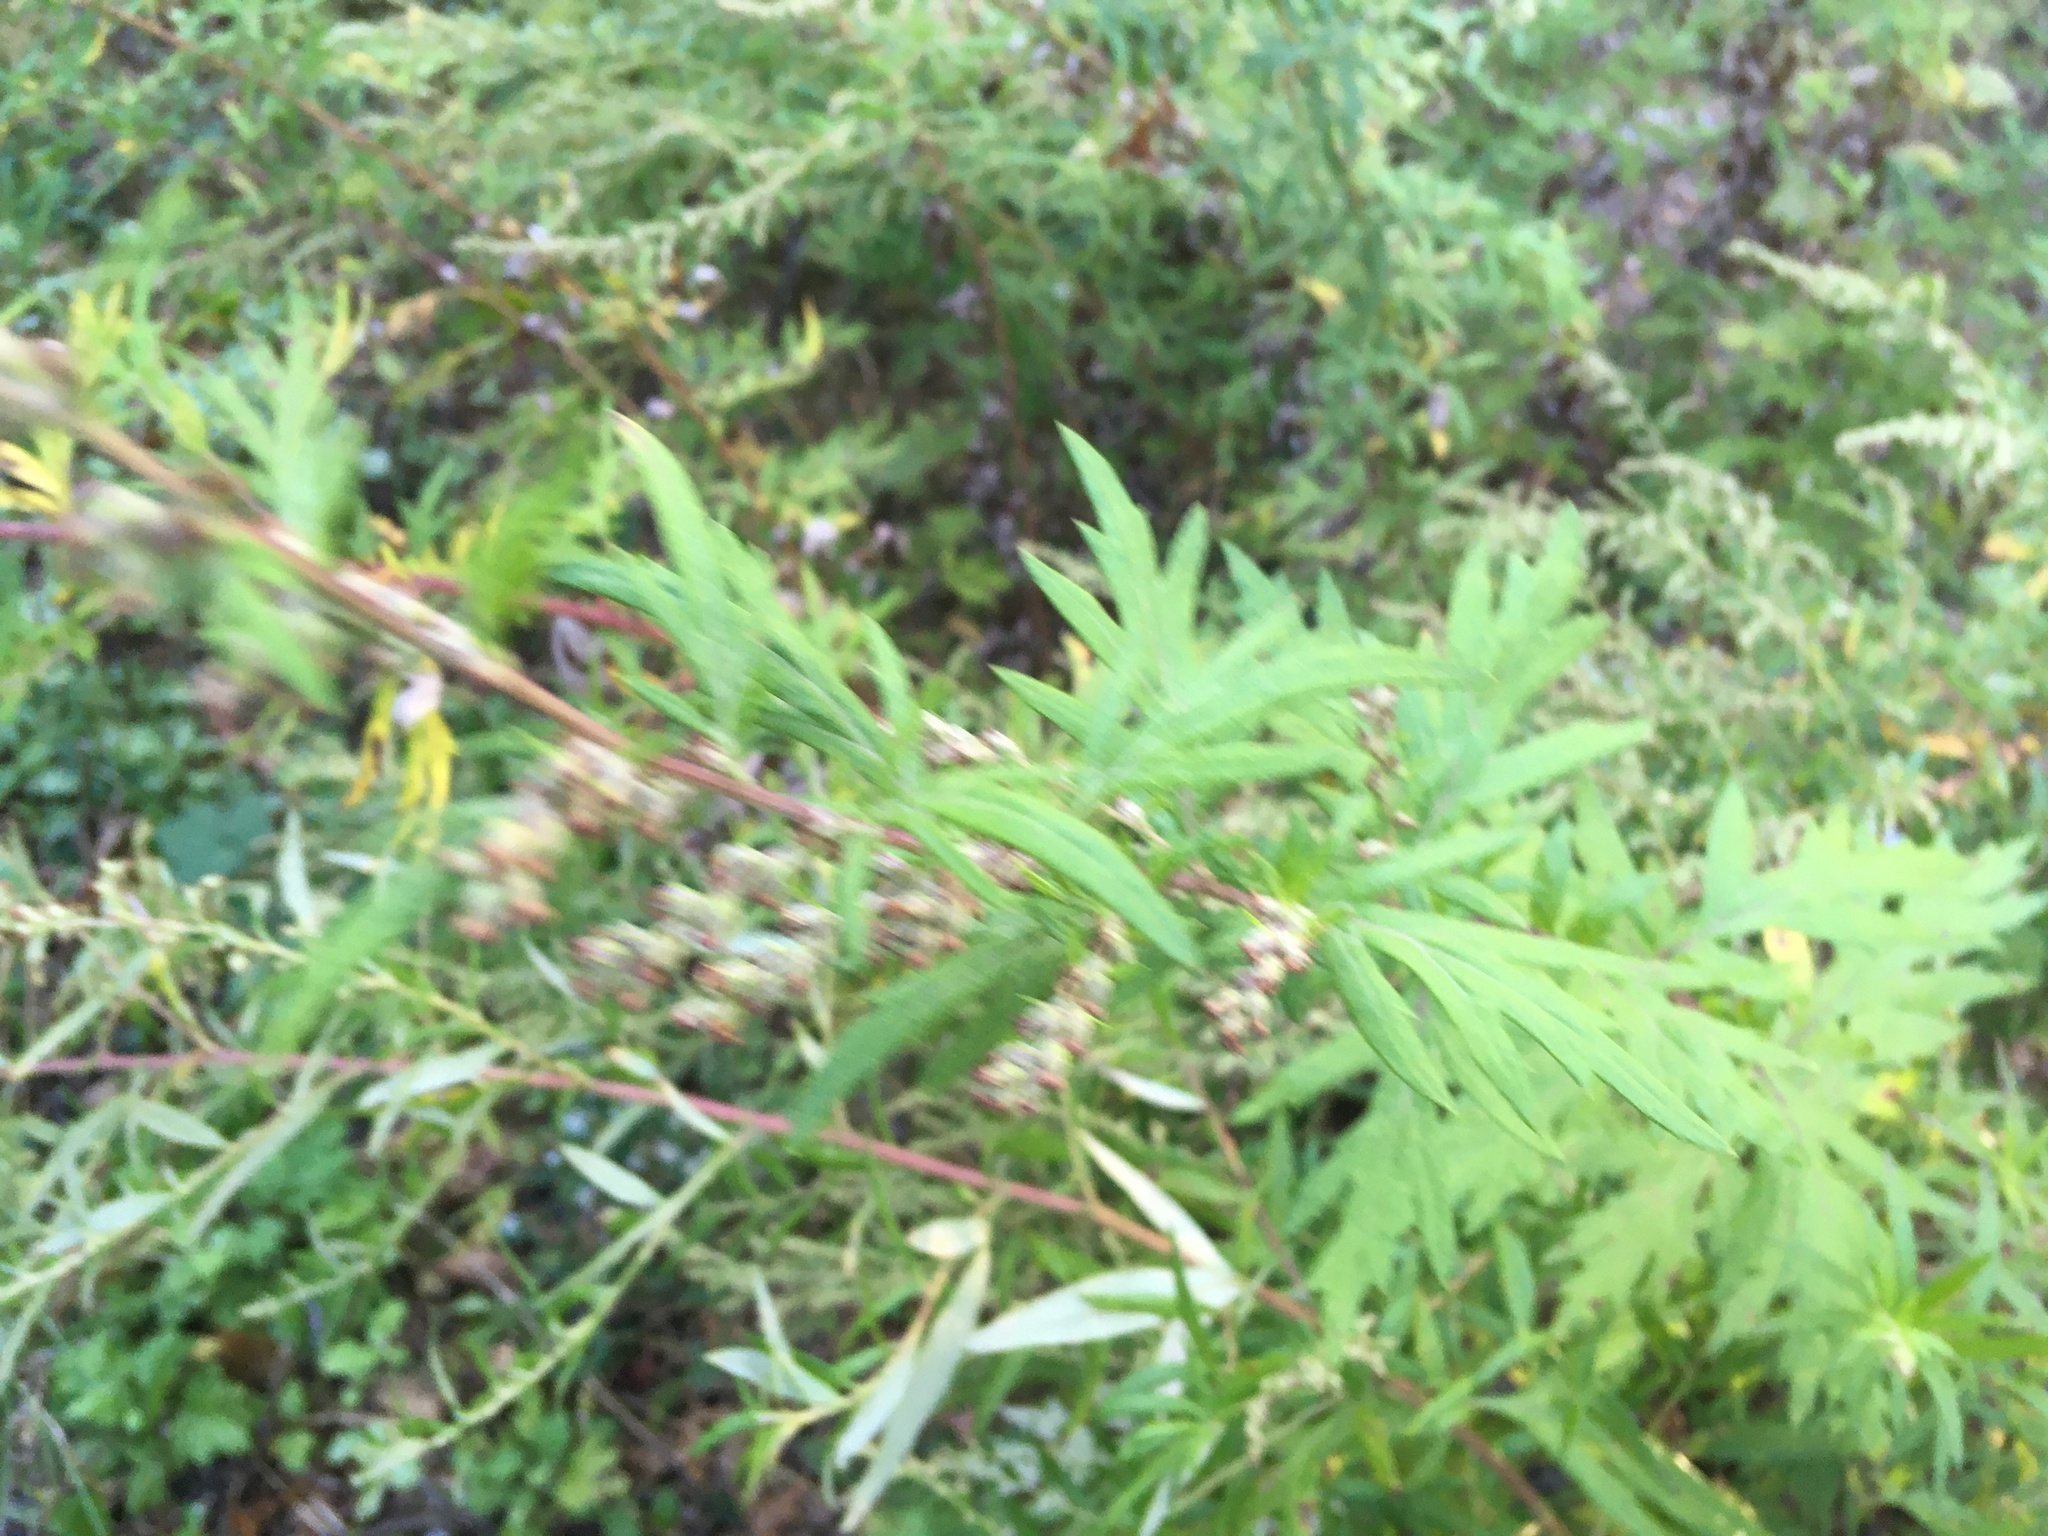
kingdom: Plantae
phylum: Tracheophyta
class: Magnoliopsida
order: Asterales
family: Asteraceae
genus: Artemisia
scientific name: Artemisia vulgaris
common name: Mugwort
